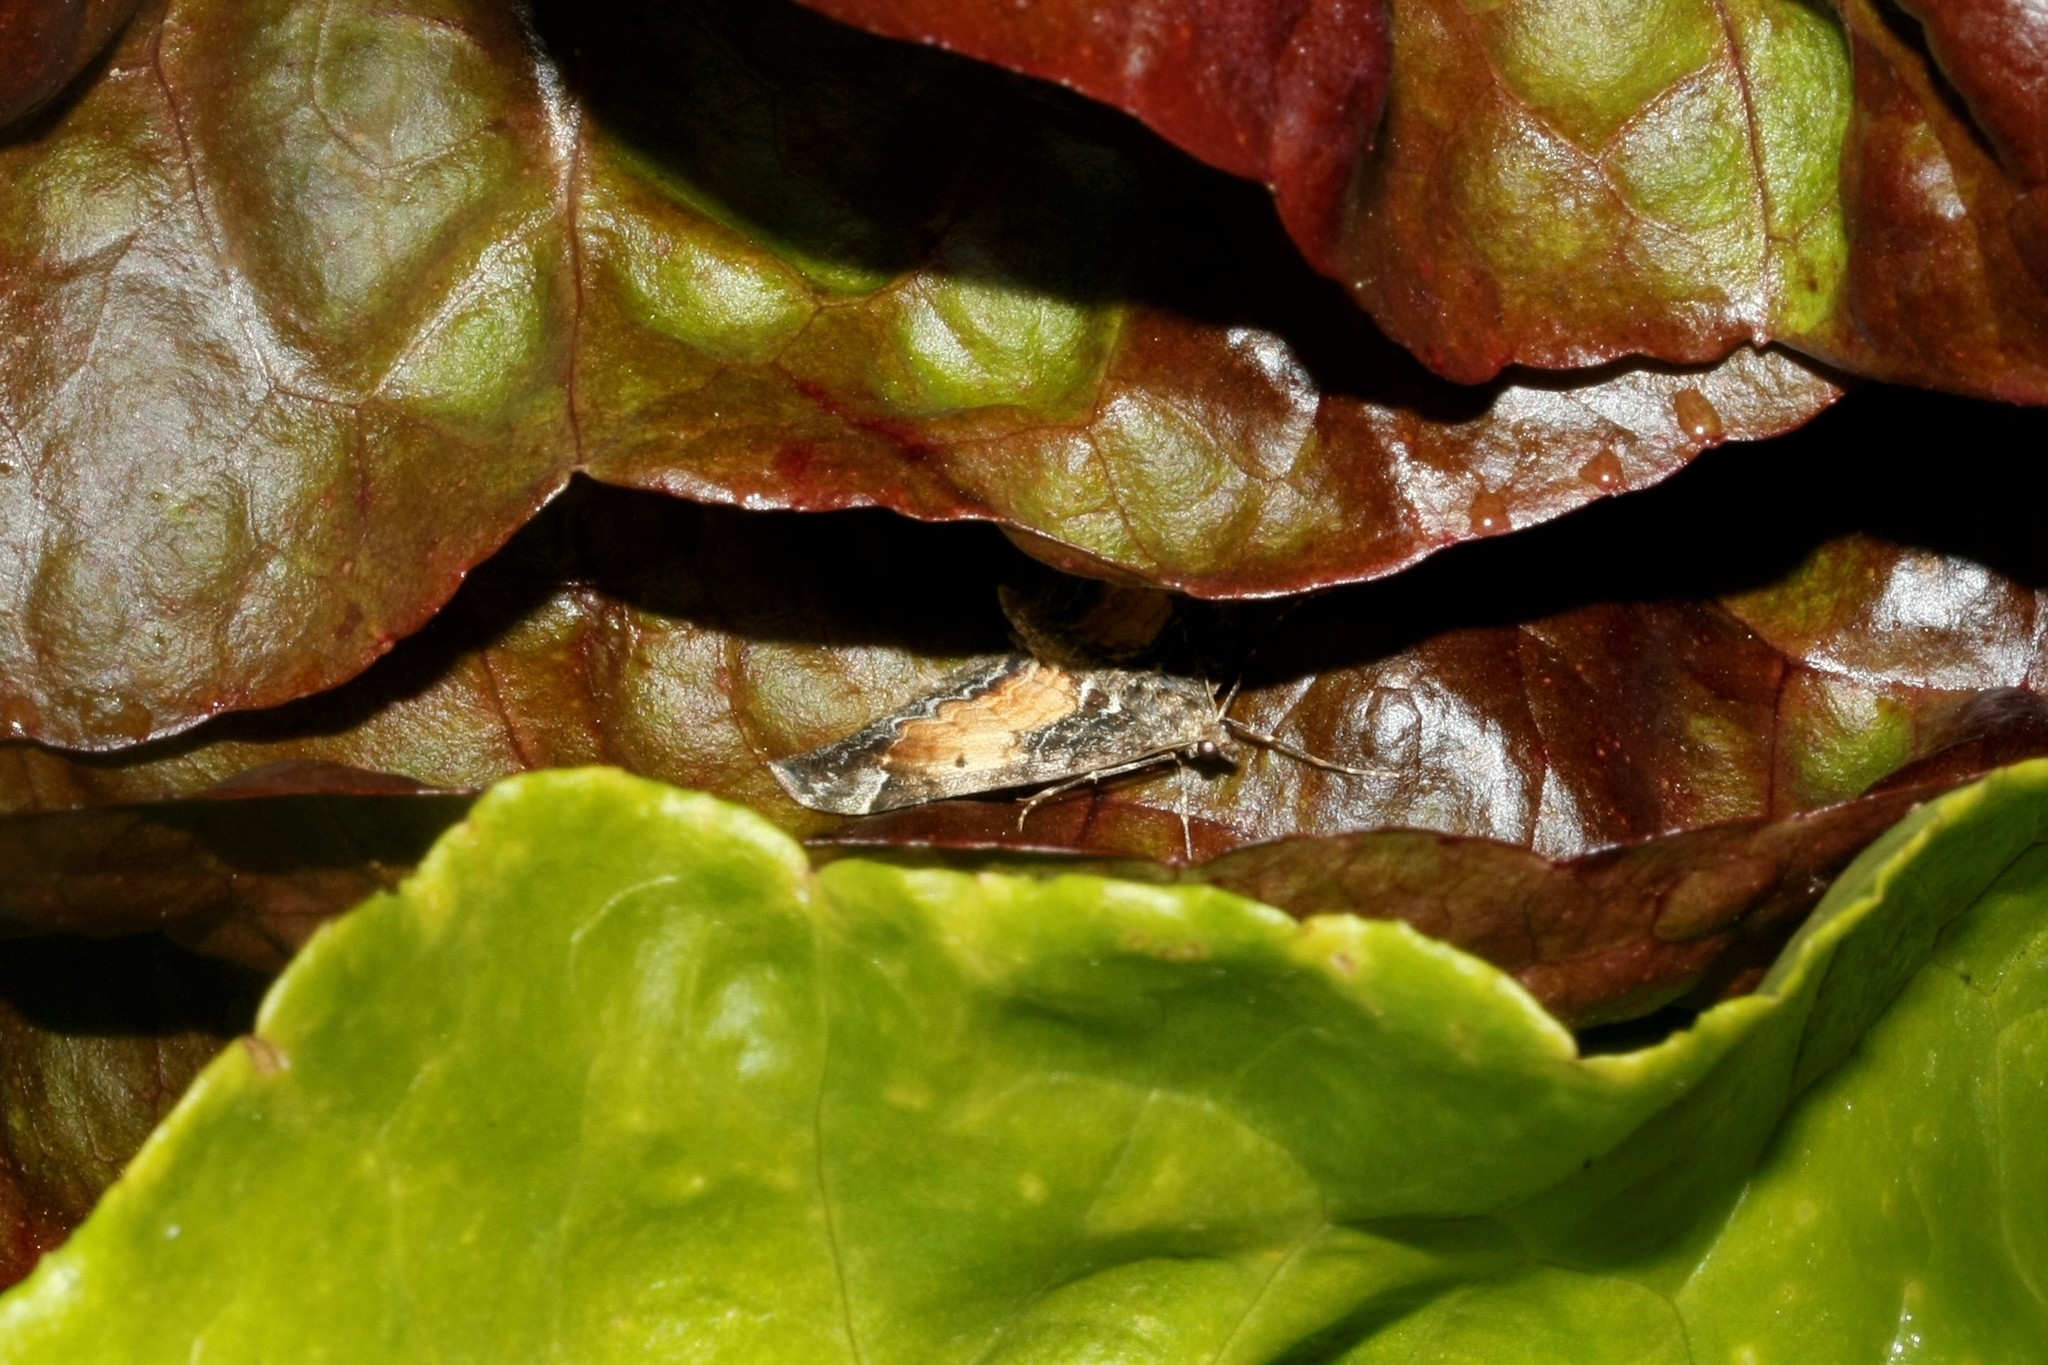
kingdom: Animalia
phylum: Arthropoda
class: Insecta
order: Lepidoptera
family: Geometridae
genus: Dysstroma
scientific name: Dysstroma truncata
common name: Common marbled carpet
